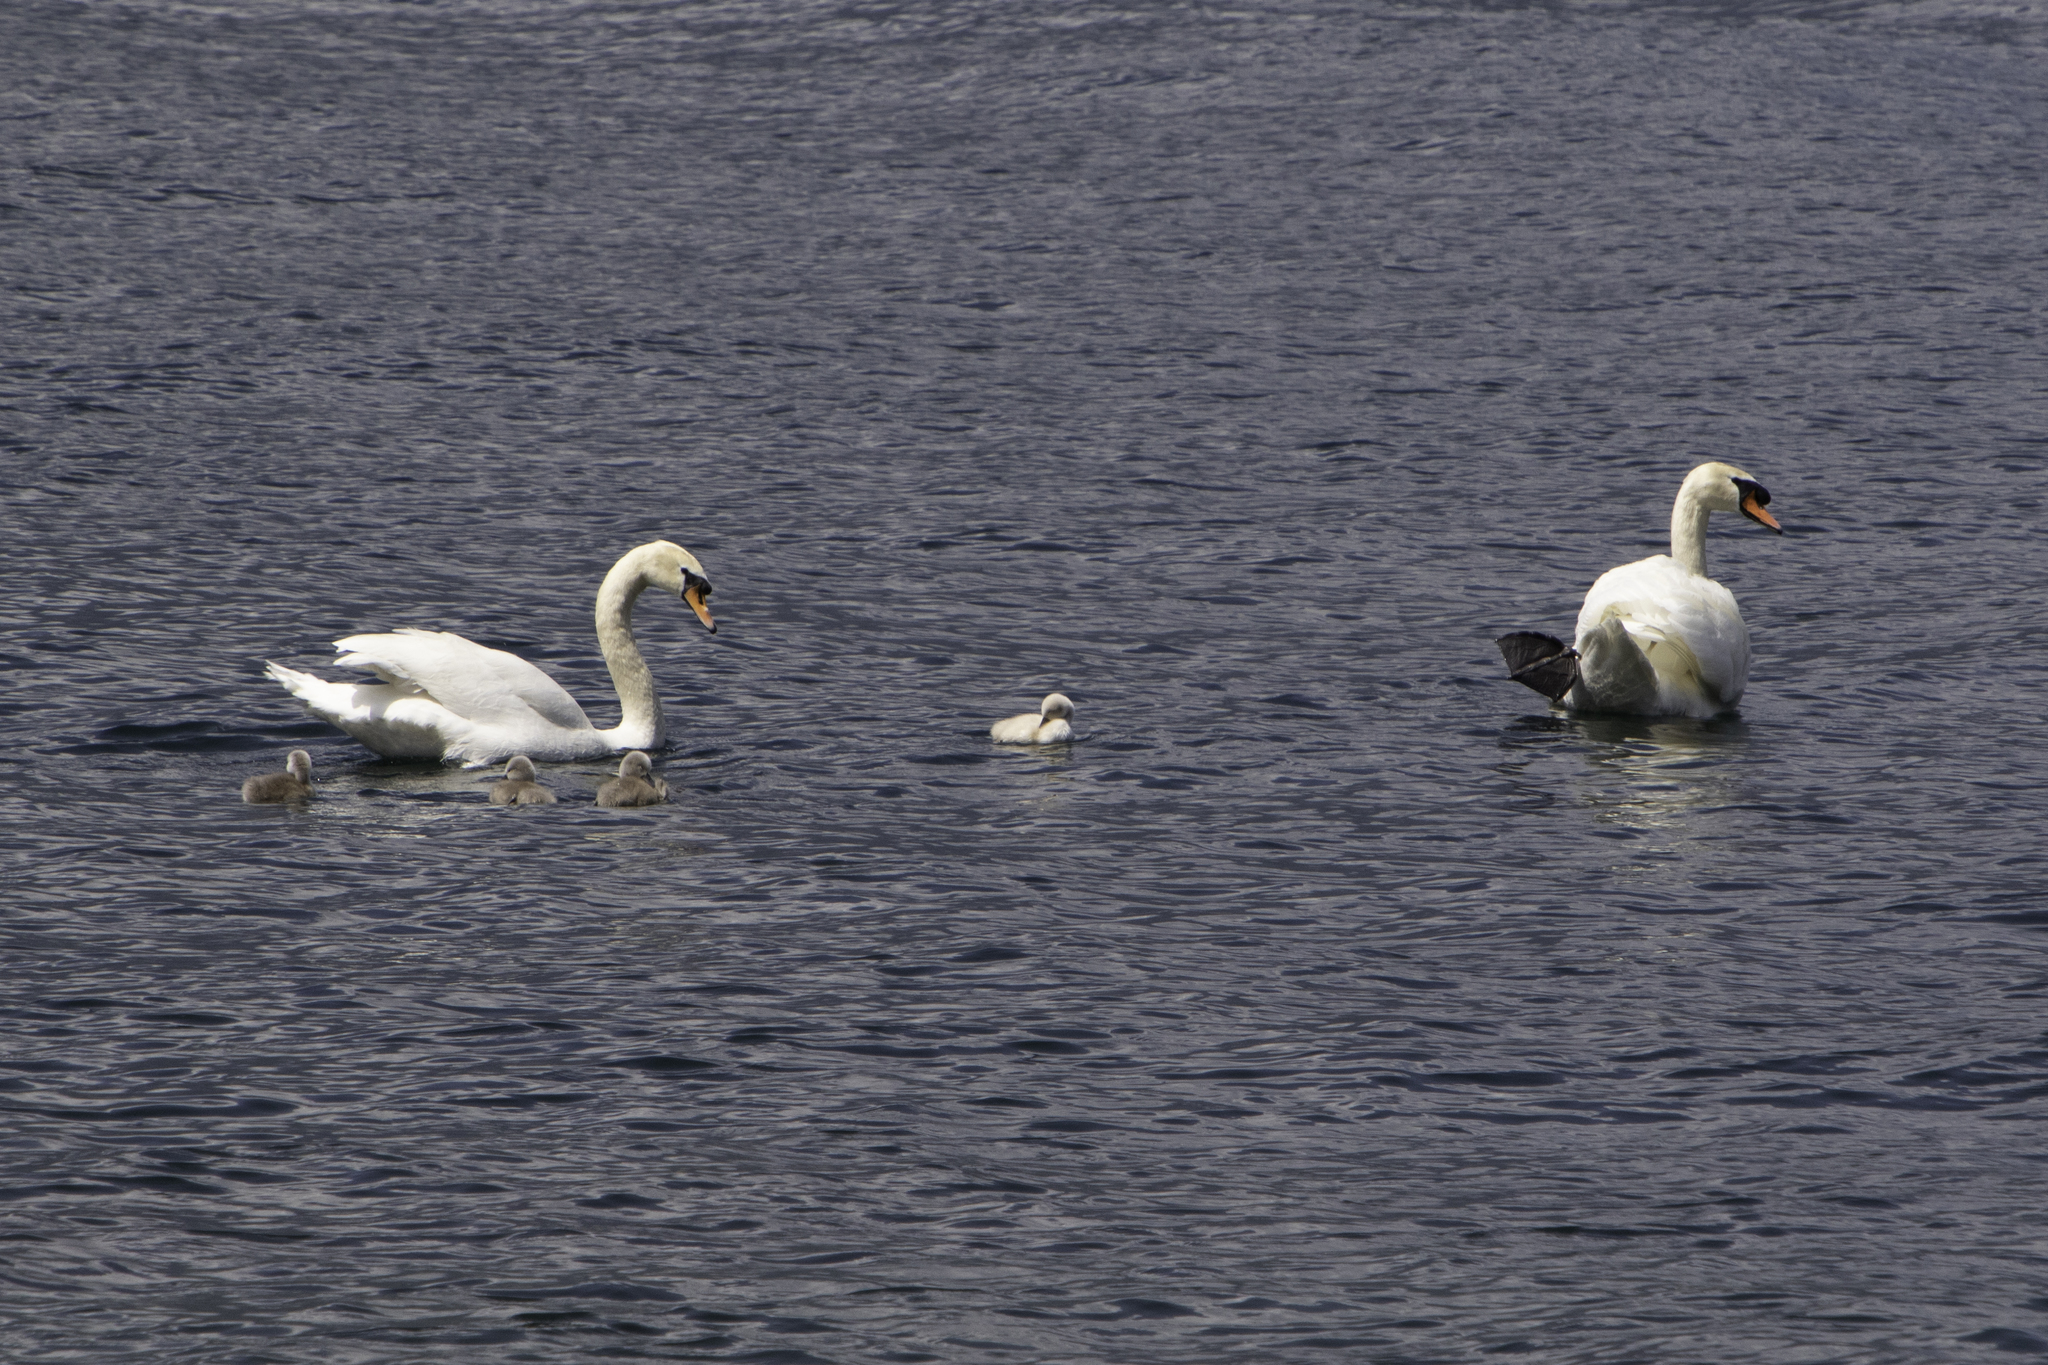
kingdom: Animalia
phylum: Chordata
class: Aves
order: Anseriformes
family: Anatidae
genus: Cygnus
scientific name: Cygnus olor
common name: Mute swan
